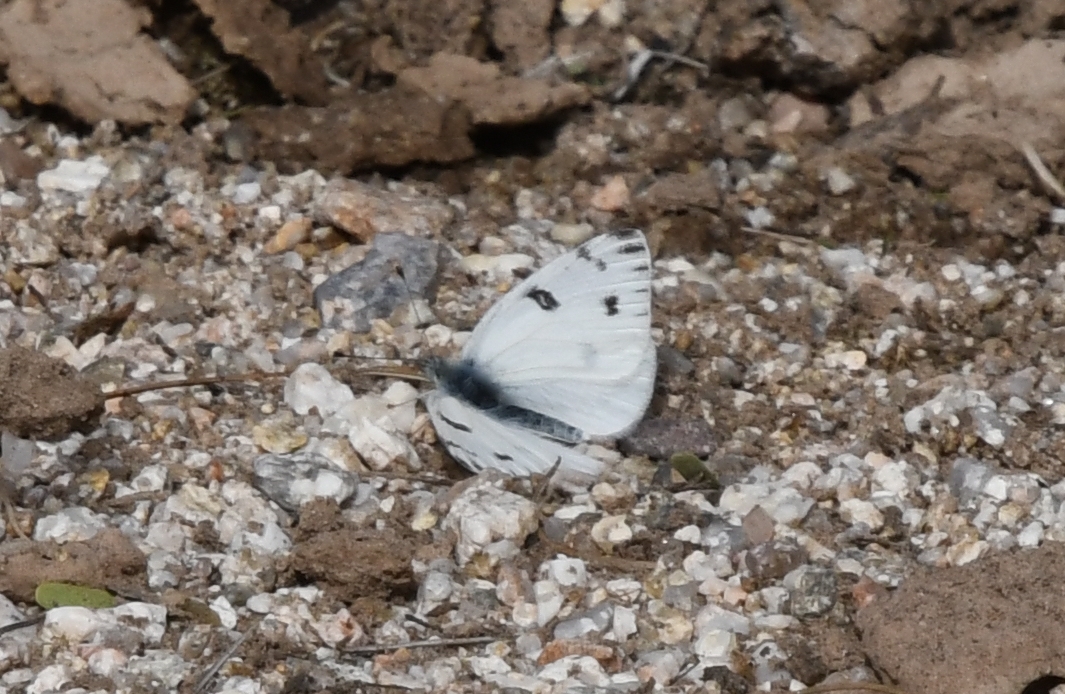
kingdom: Animalia
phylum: Arthropoda
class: Insecta
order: Lepidoptera
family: Pieridae
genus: Pontia
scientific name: Pontia protodice
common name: Checkered white
